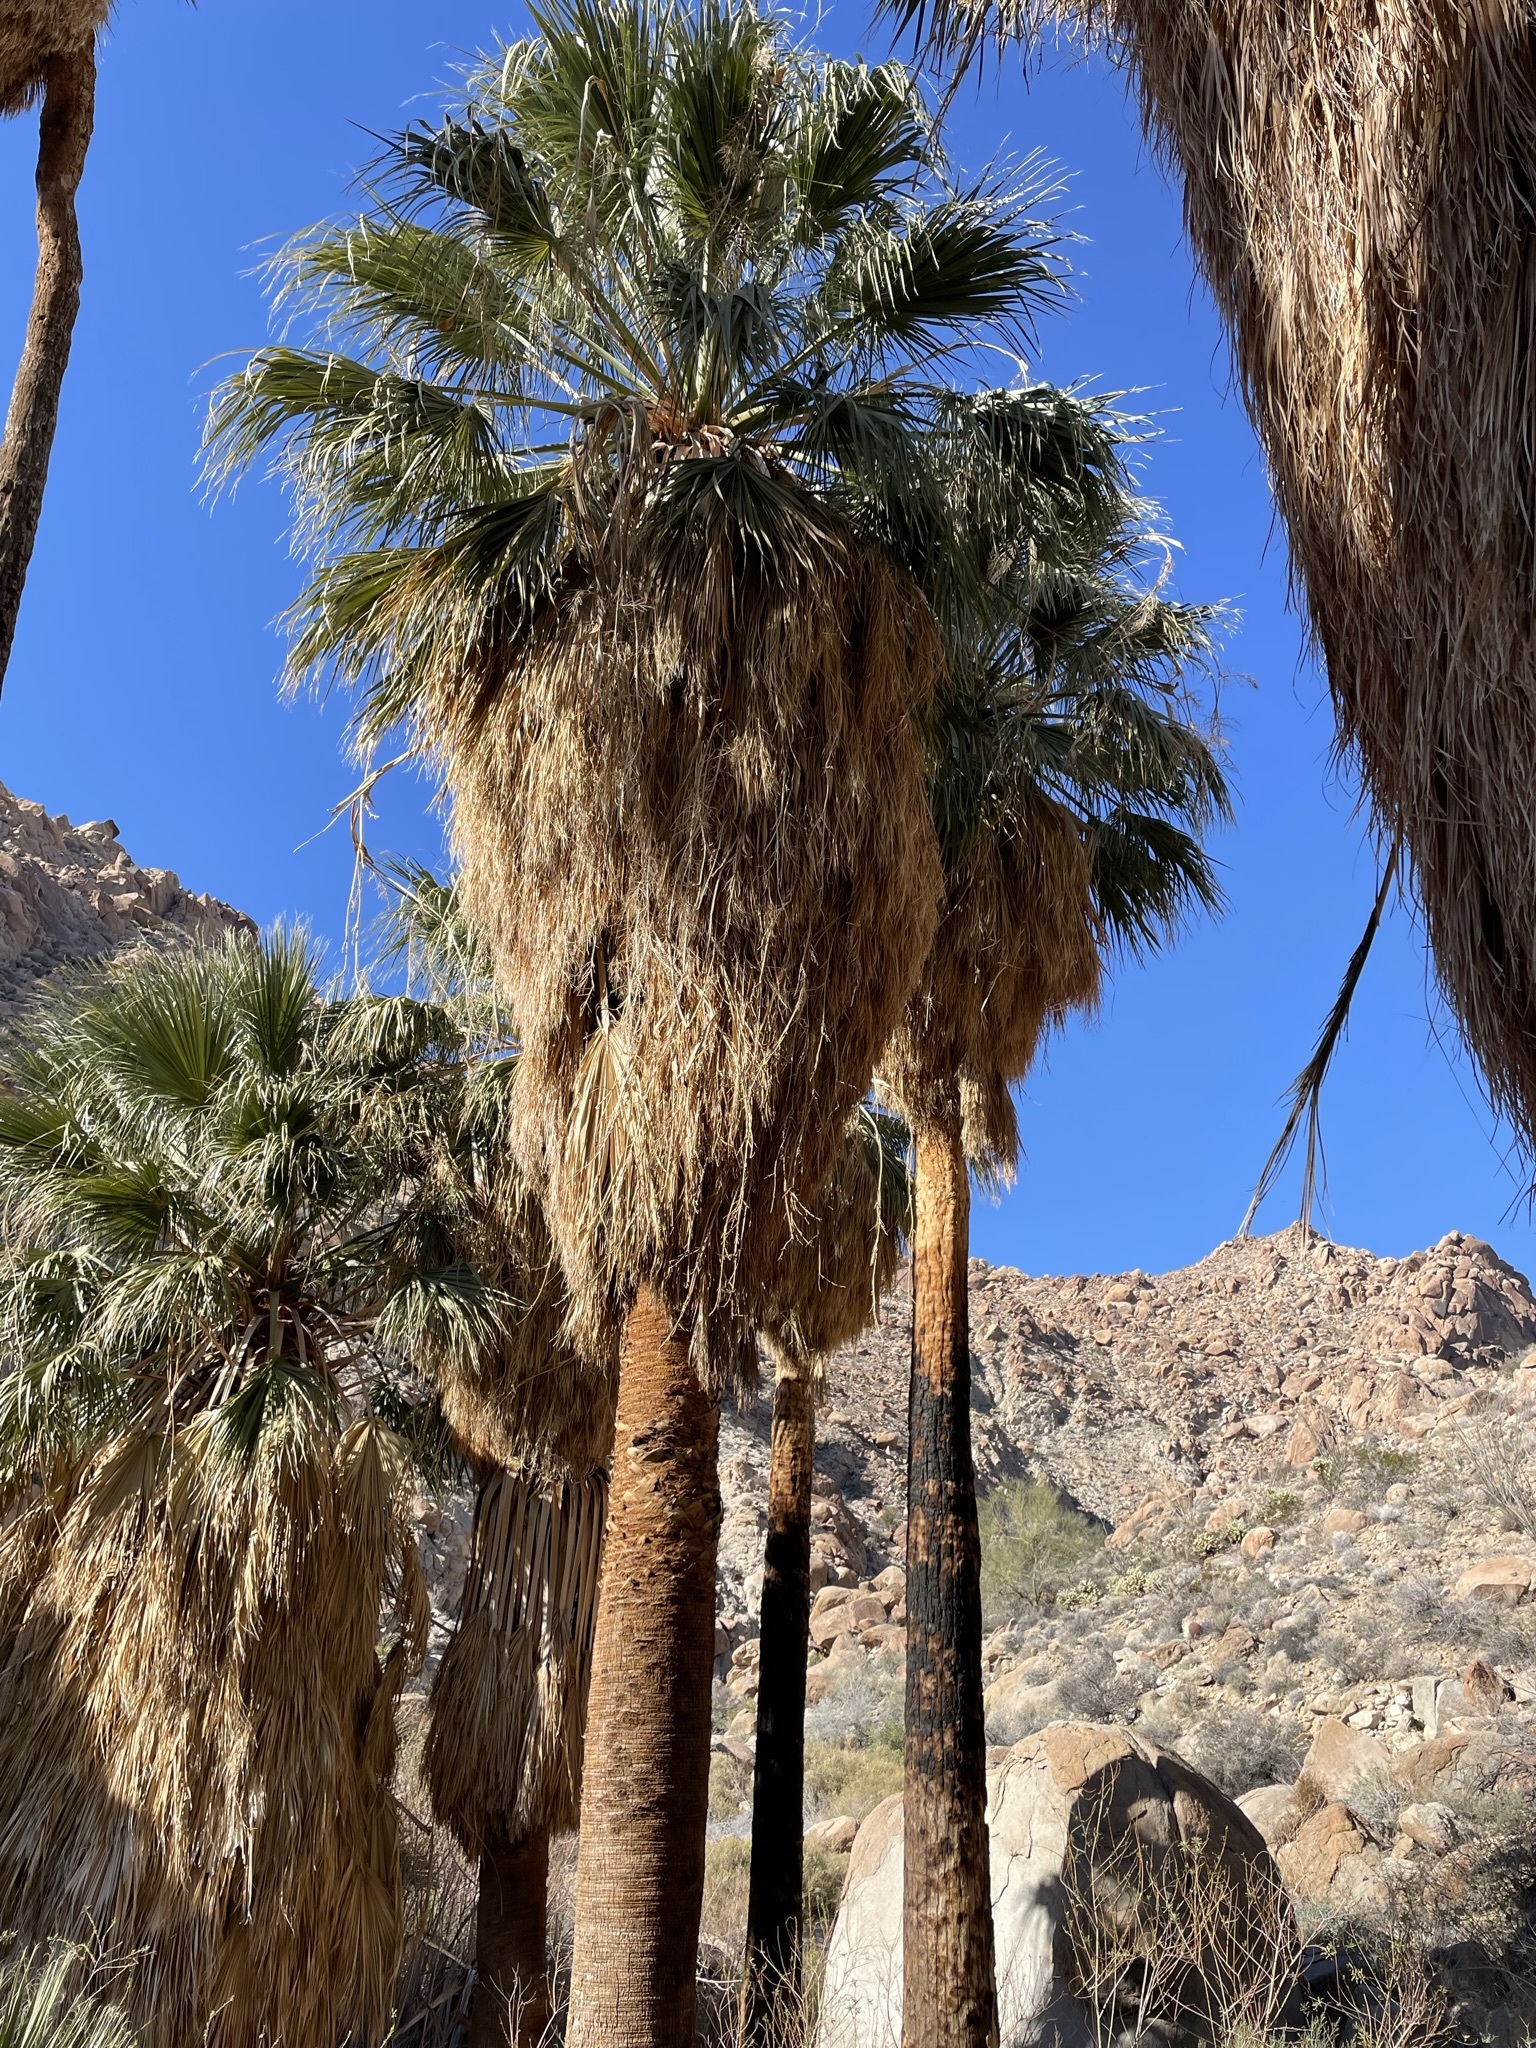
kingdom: Plantae
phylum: Tracheophyta
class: Liliopsida
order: Arecales
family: Arecaceae
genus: Washingtonia
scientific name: Washingtonia filifera
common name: California fan palm
